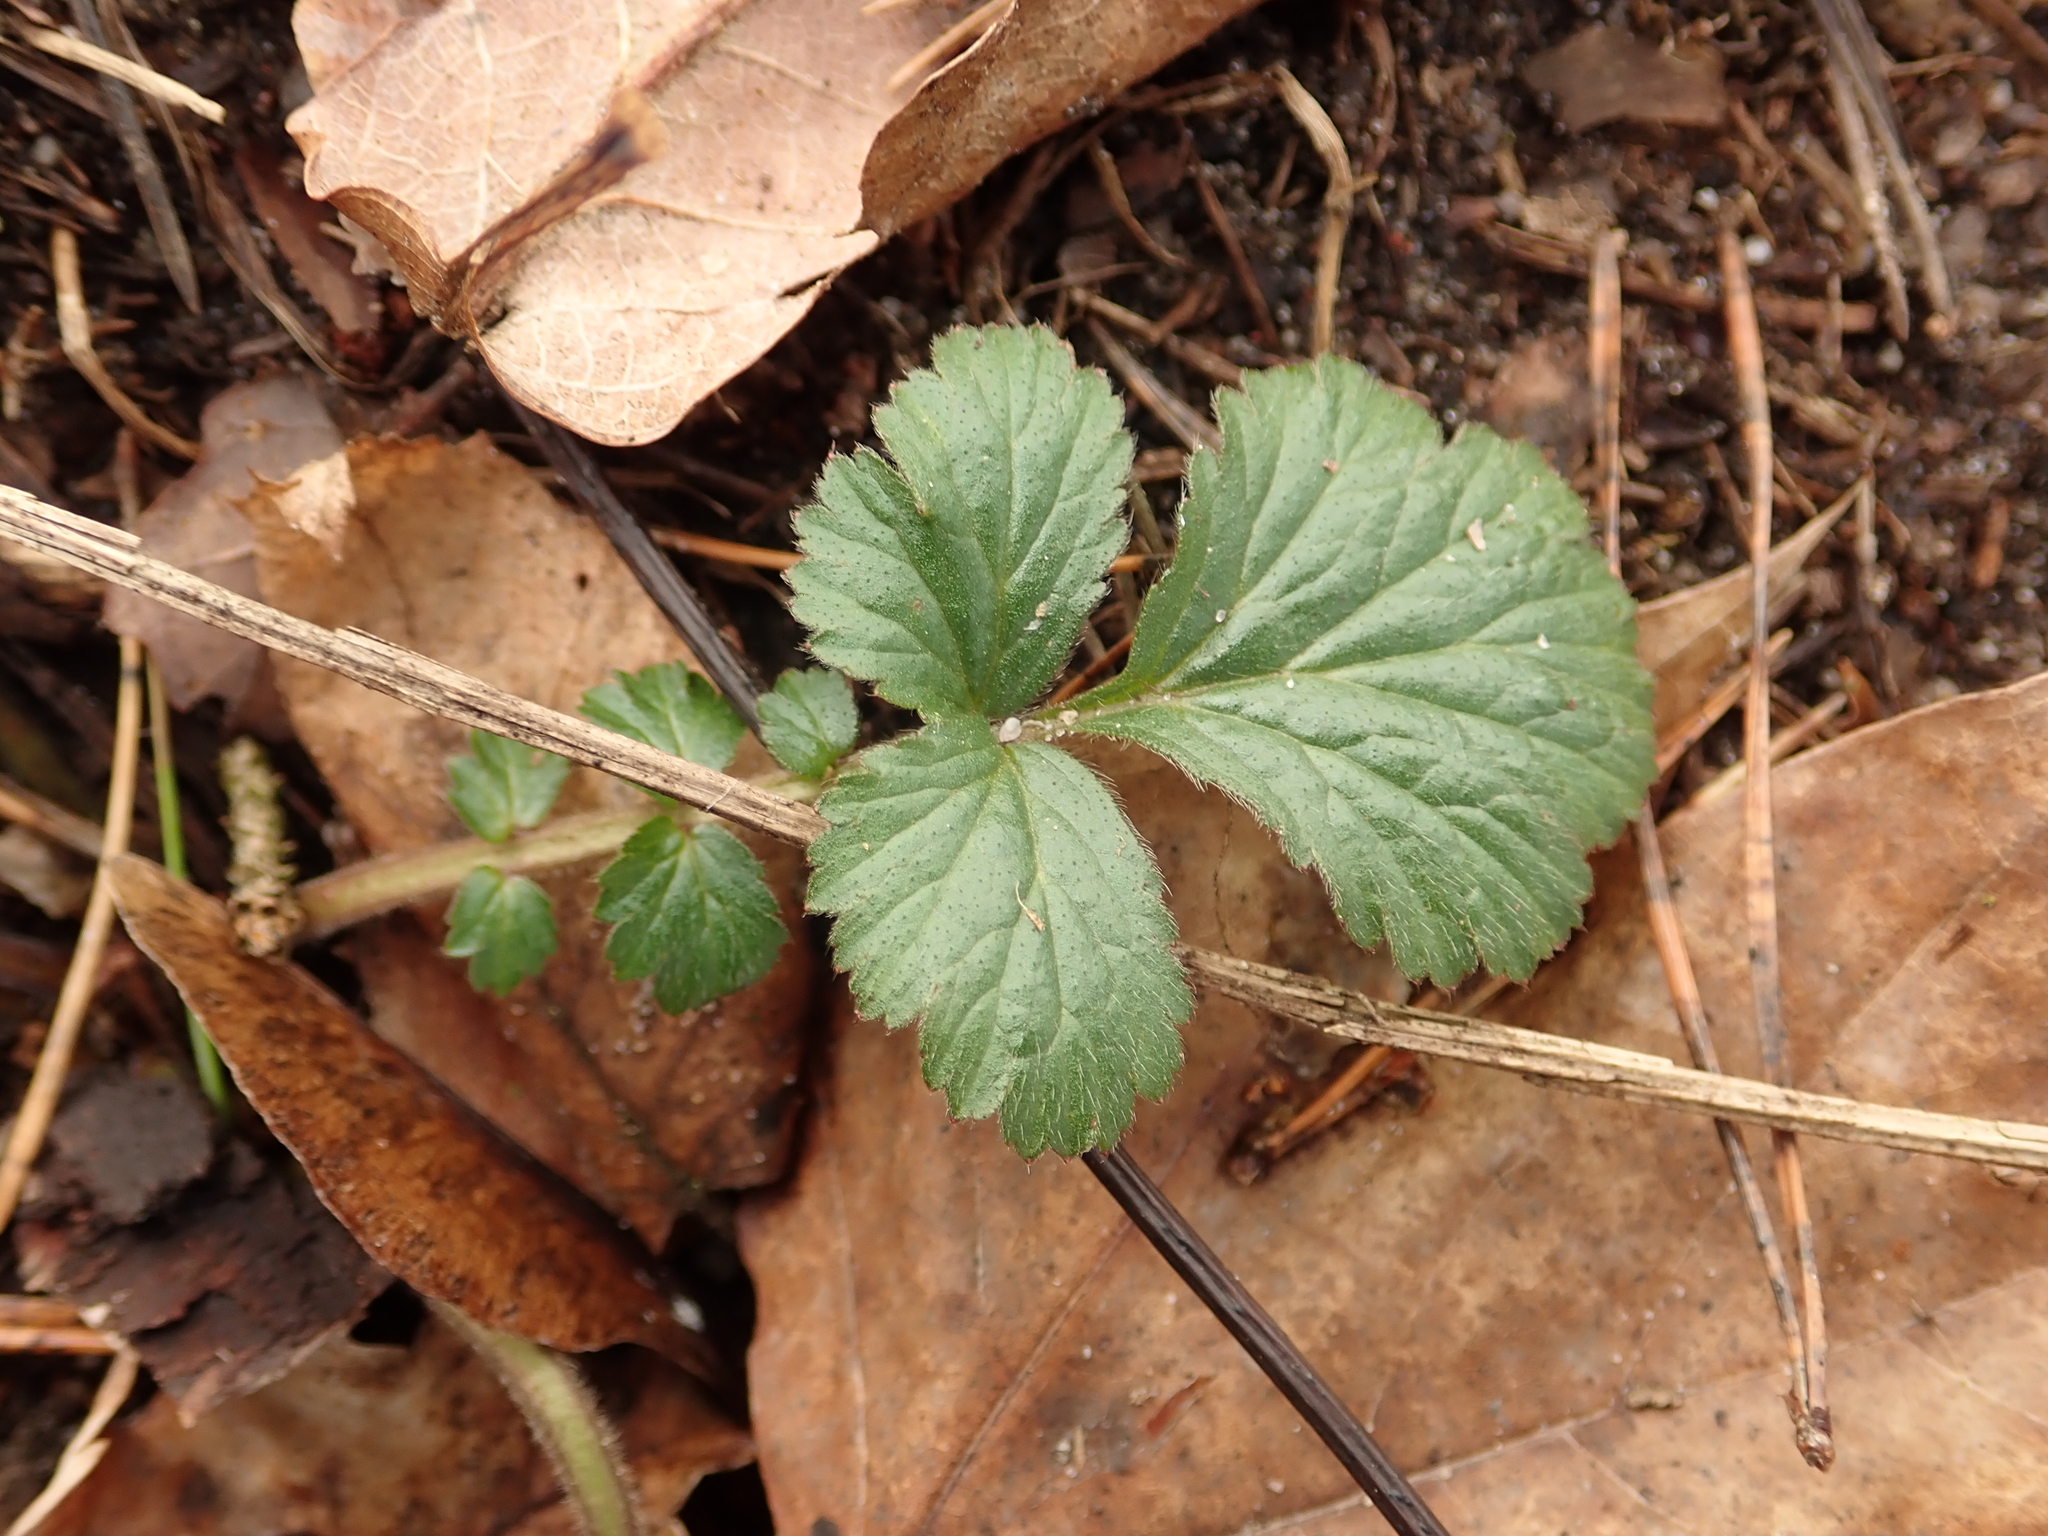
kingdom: Plantae
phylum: Tracheophyta
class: Magnoliopsida
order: Rosales
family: Rosaceae
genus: Geum
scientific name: Geum urbanum
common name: Wood avens
